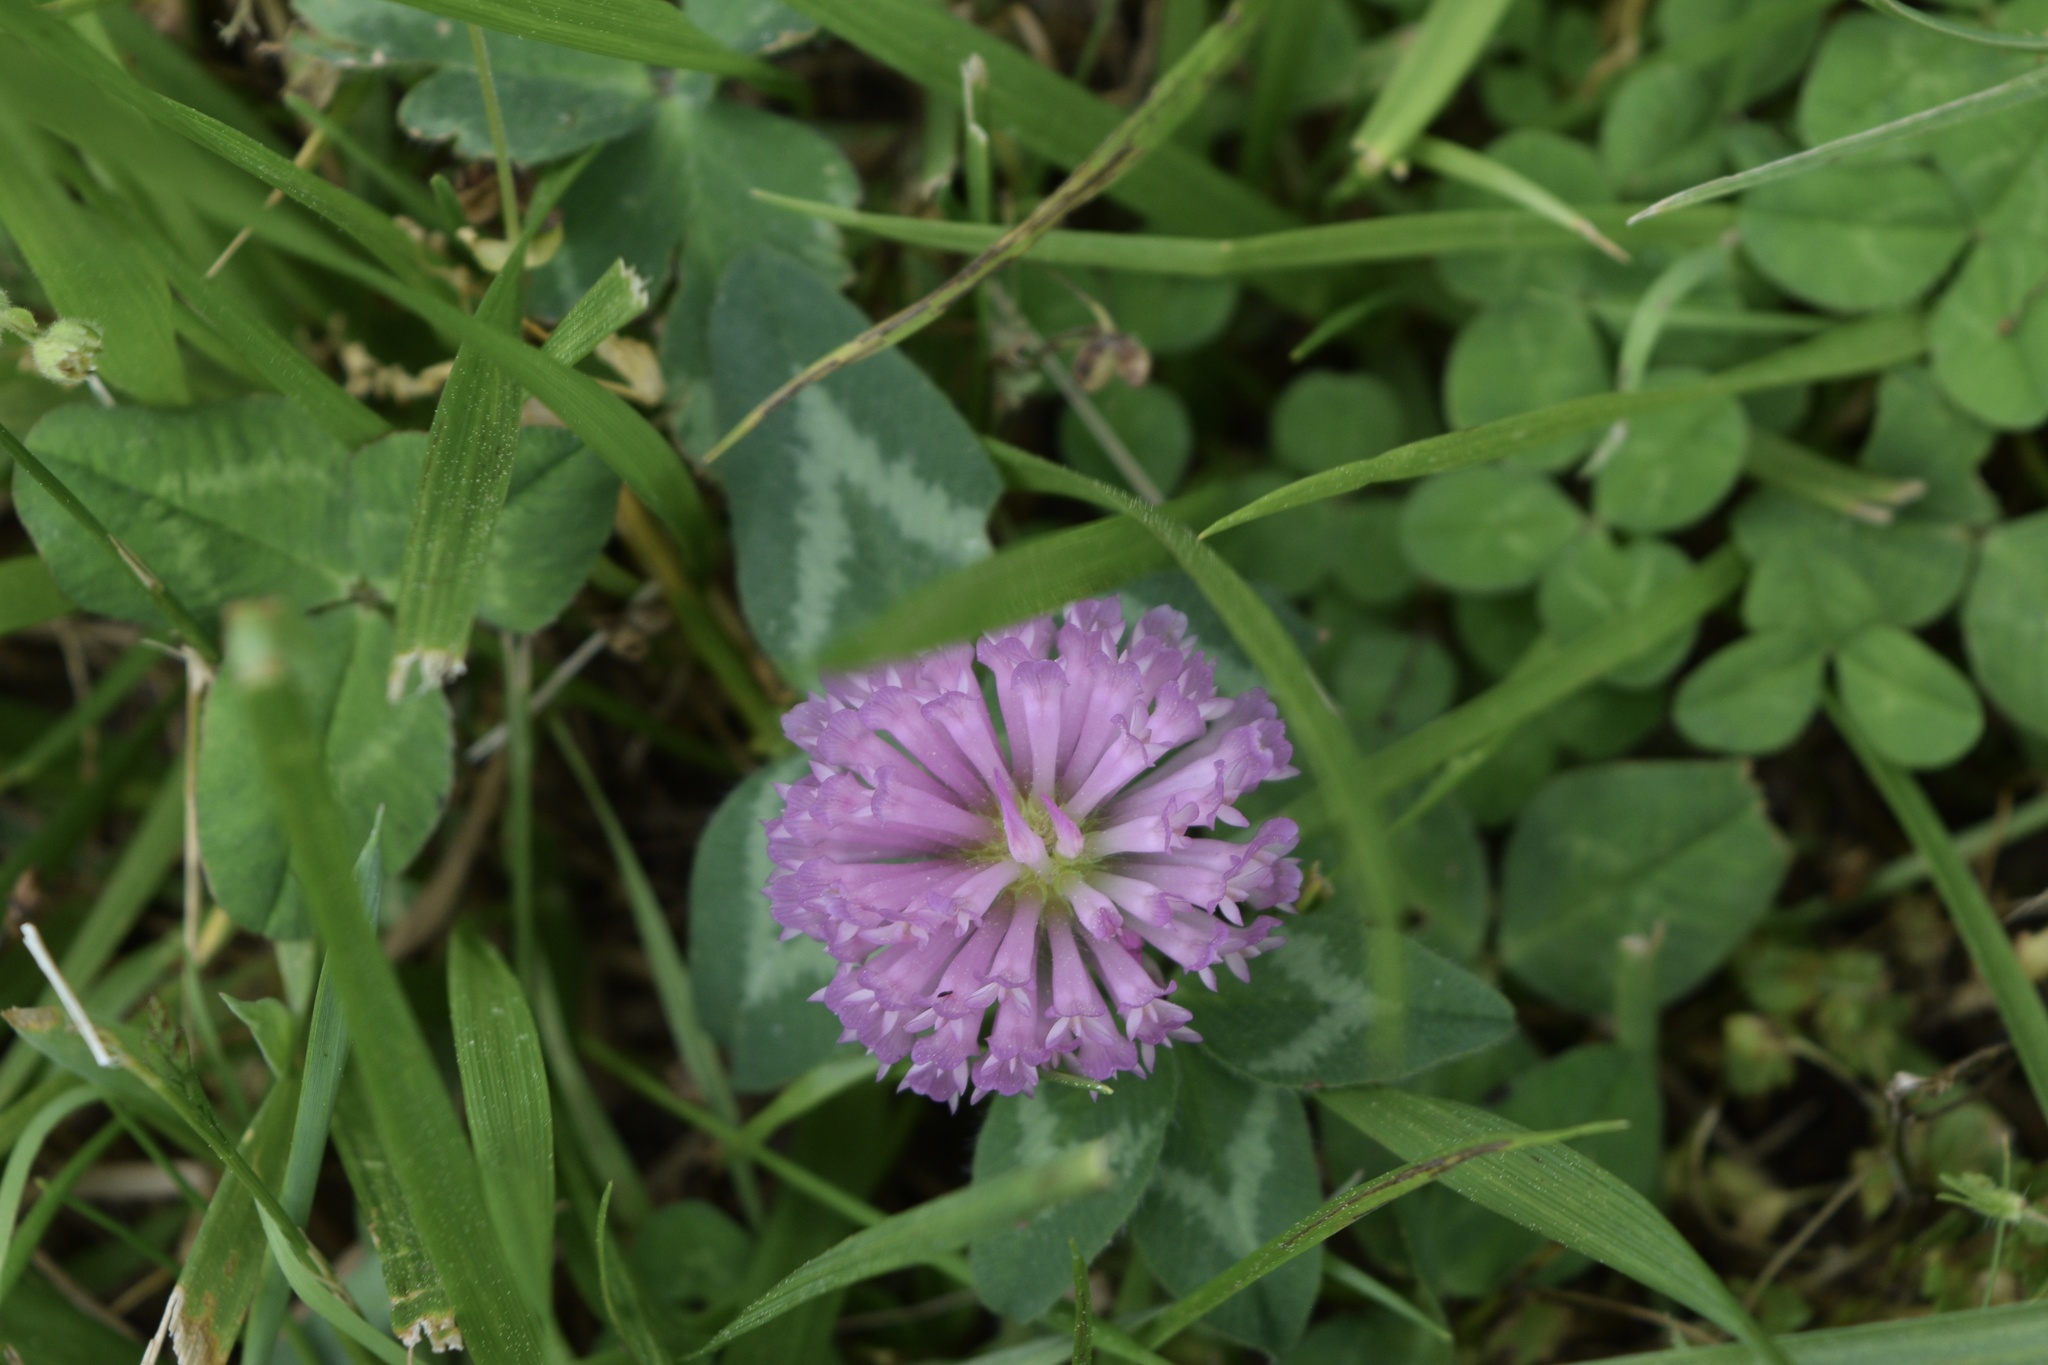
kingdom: Plantae
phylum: Tracheophyta
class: Magnoliopsida
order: Fabales
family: Fabaceae
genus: Trifolium
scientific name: Trifolium pratense
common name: Red clover
